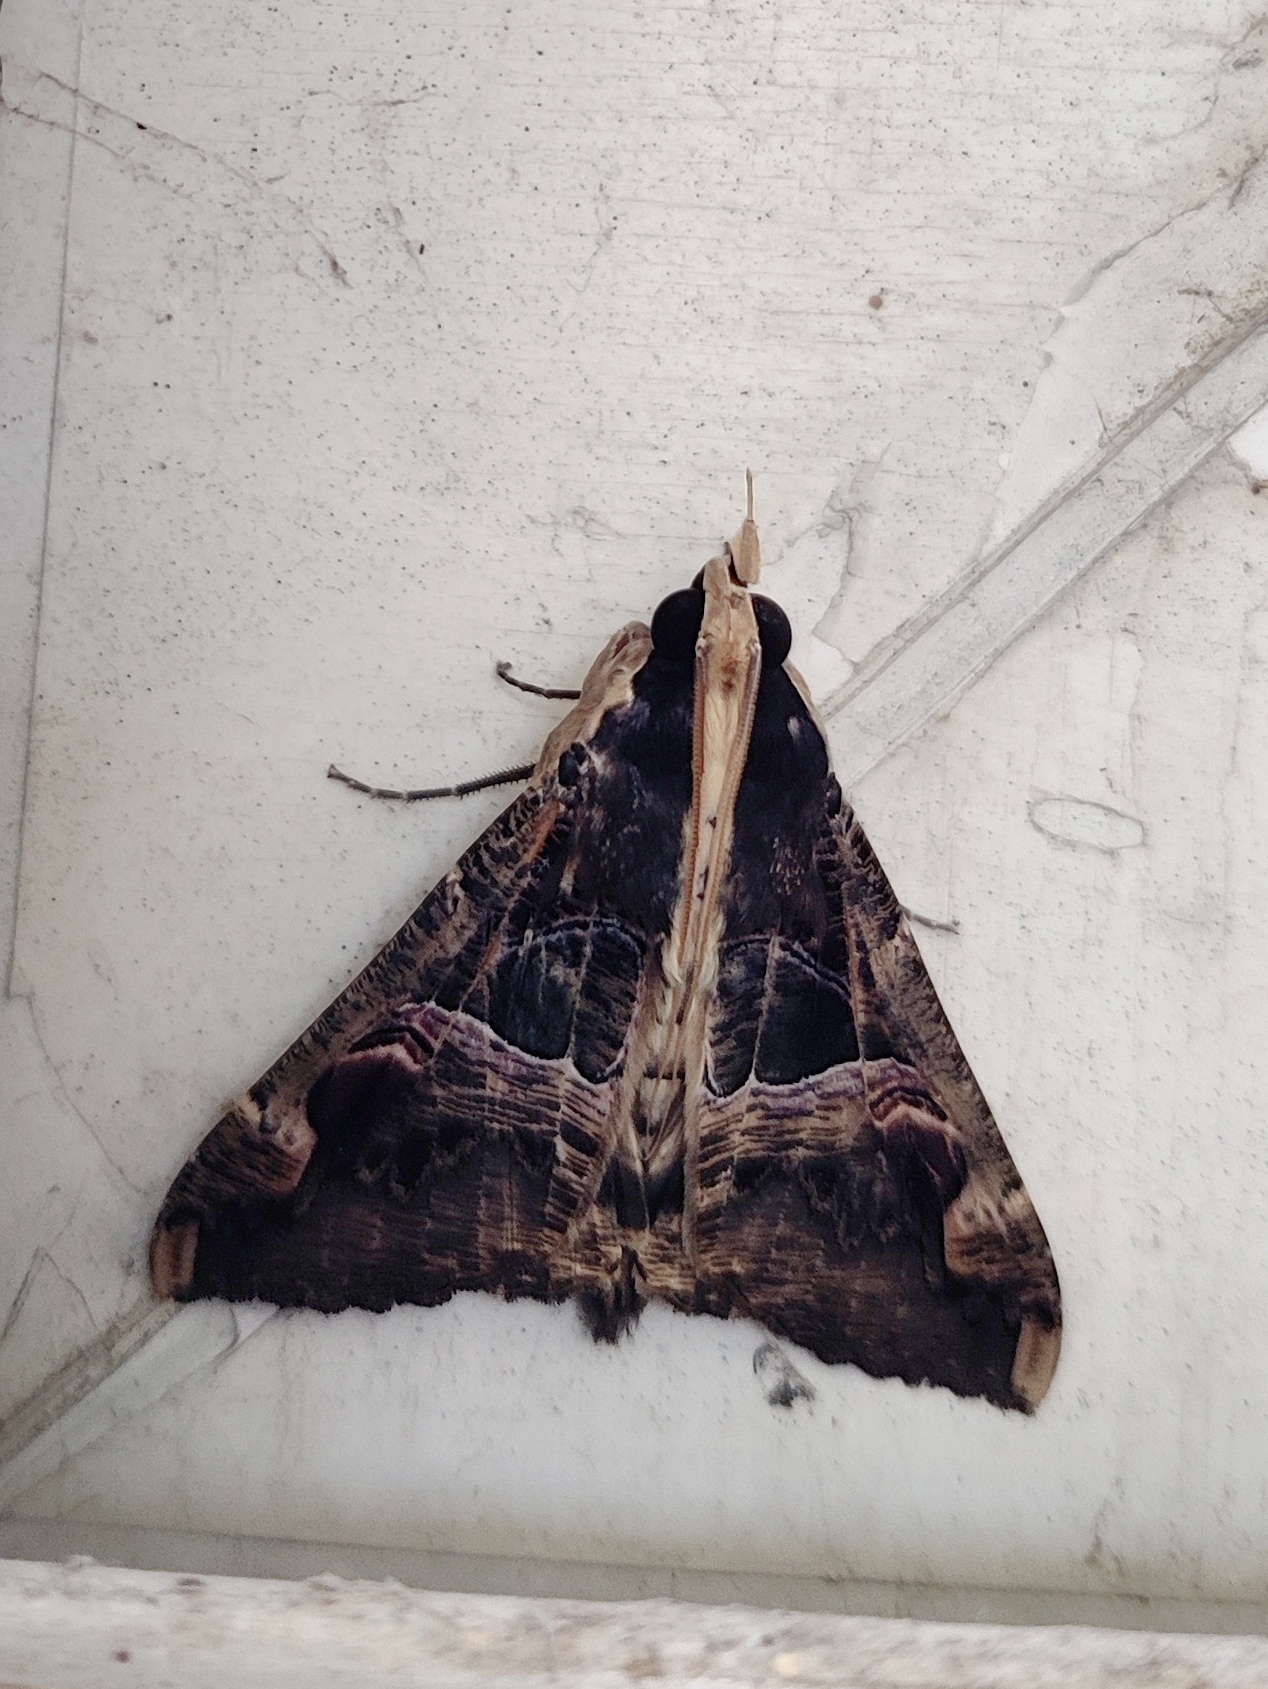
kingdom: Animalia
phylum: Arthropoda
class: Insecta
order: Lepidoptera
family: Erebidae
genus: Sphingomorpha
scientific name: Sphingomorpha chlorea
